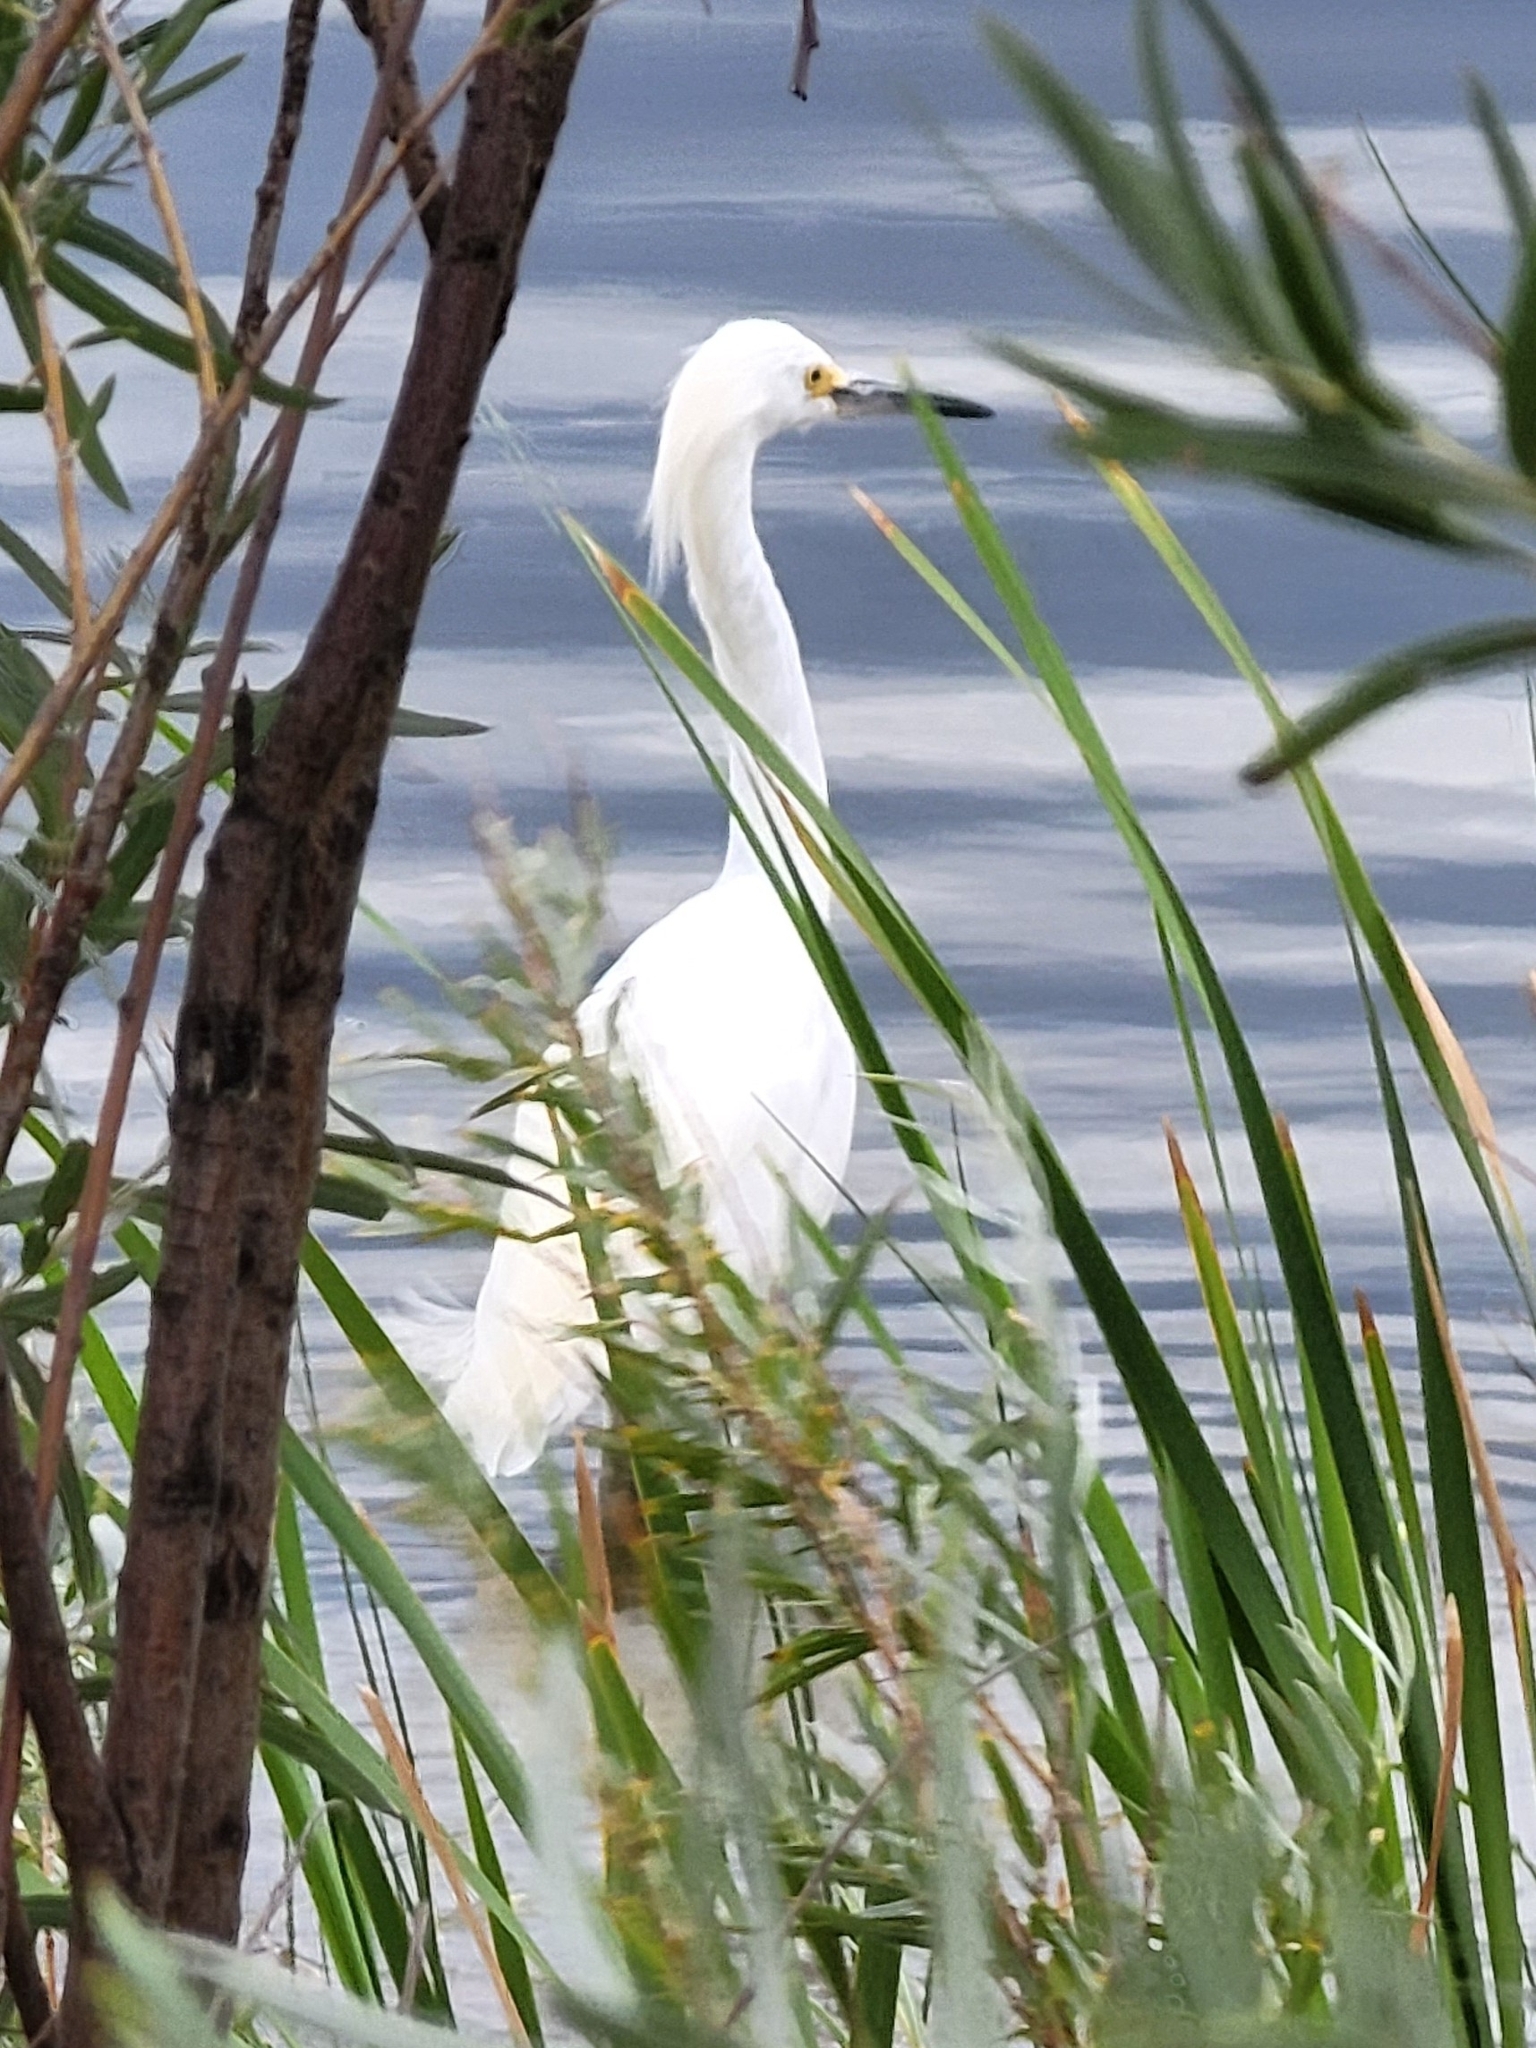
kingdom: Animalia
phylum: Chordata
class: Aves
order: Pelecaniformes
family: Ardeidae
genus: Egretta
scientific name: Egretta thula
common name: Snowy egret
